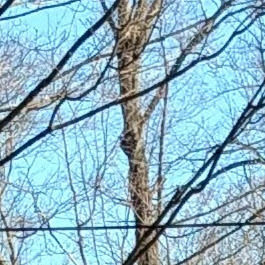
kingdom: Animalia
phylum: Chordata
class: Aves
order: Piciformes
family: Picidae
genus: Dryocopus
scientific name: Dryocopus pileatus
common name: Pileated woodpecker
